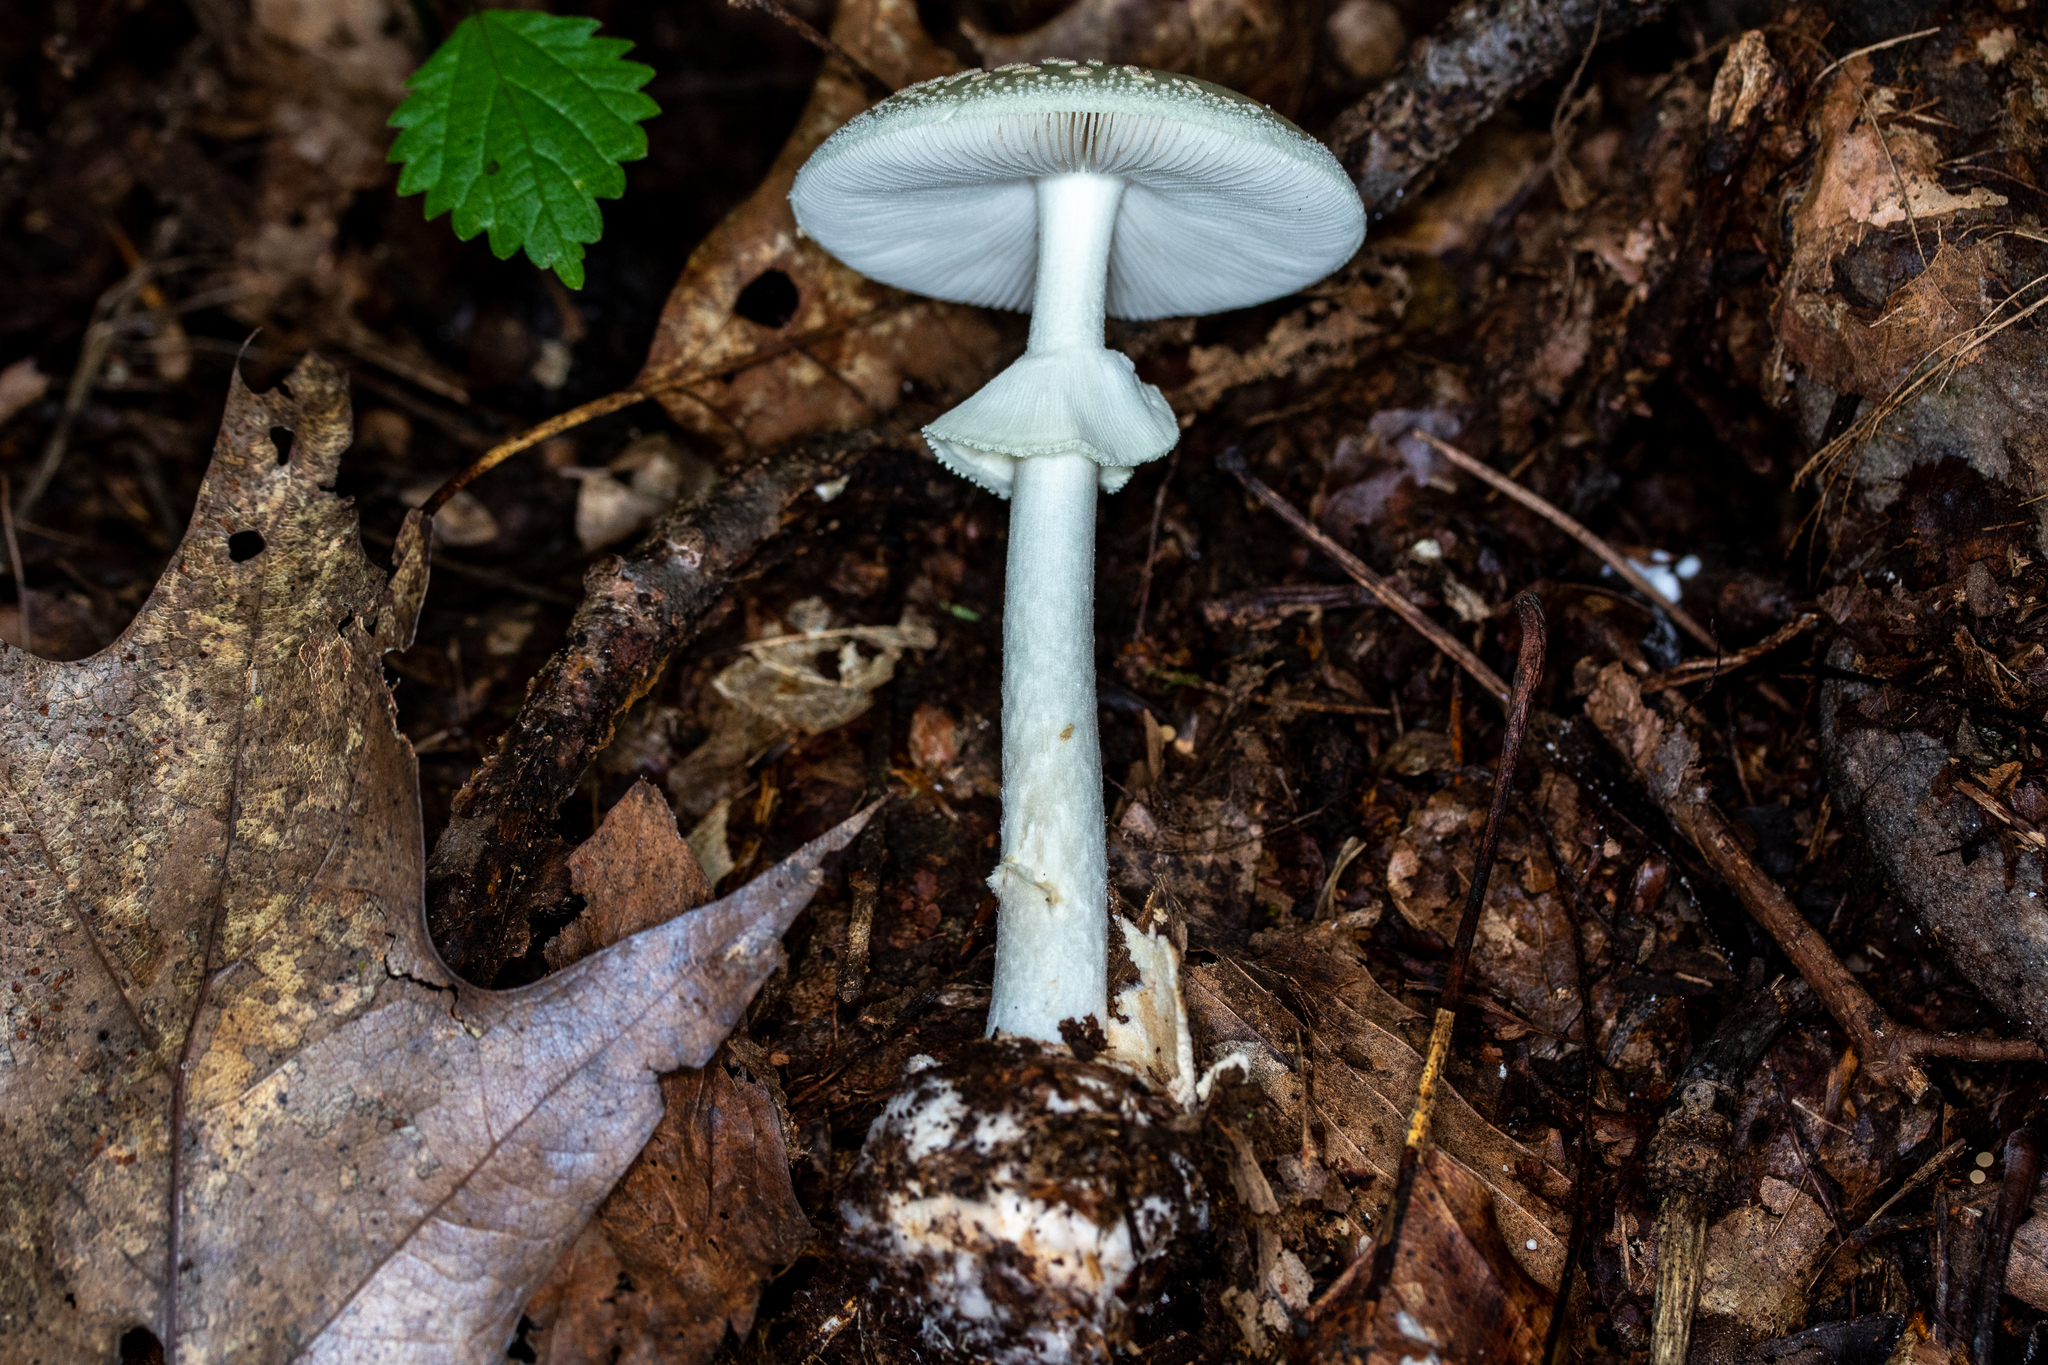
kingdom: Fungi
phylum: Basidiomycota
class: Agaricomycetes
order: Agaricales
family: Amanitaceae
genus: Amanita
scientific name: Amanita lavendula
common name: Coker's lavender staining amanita
